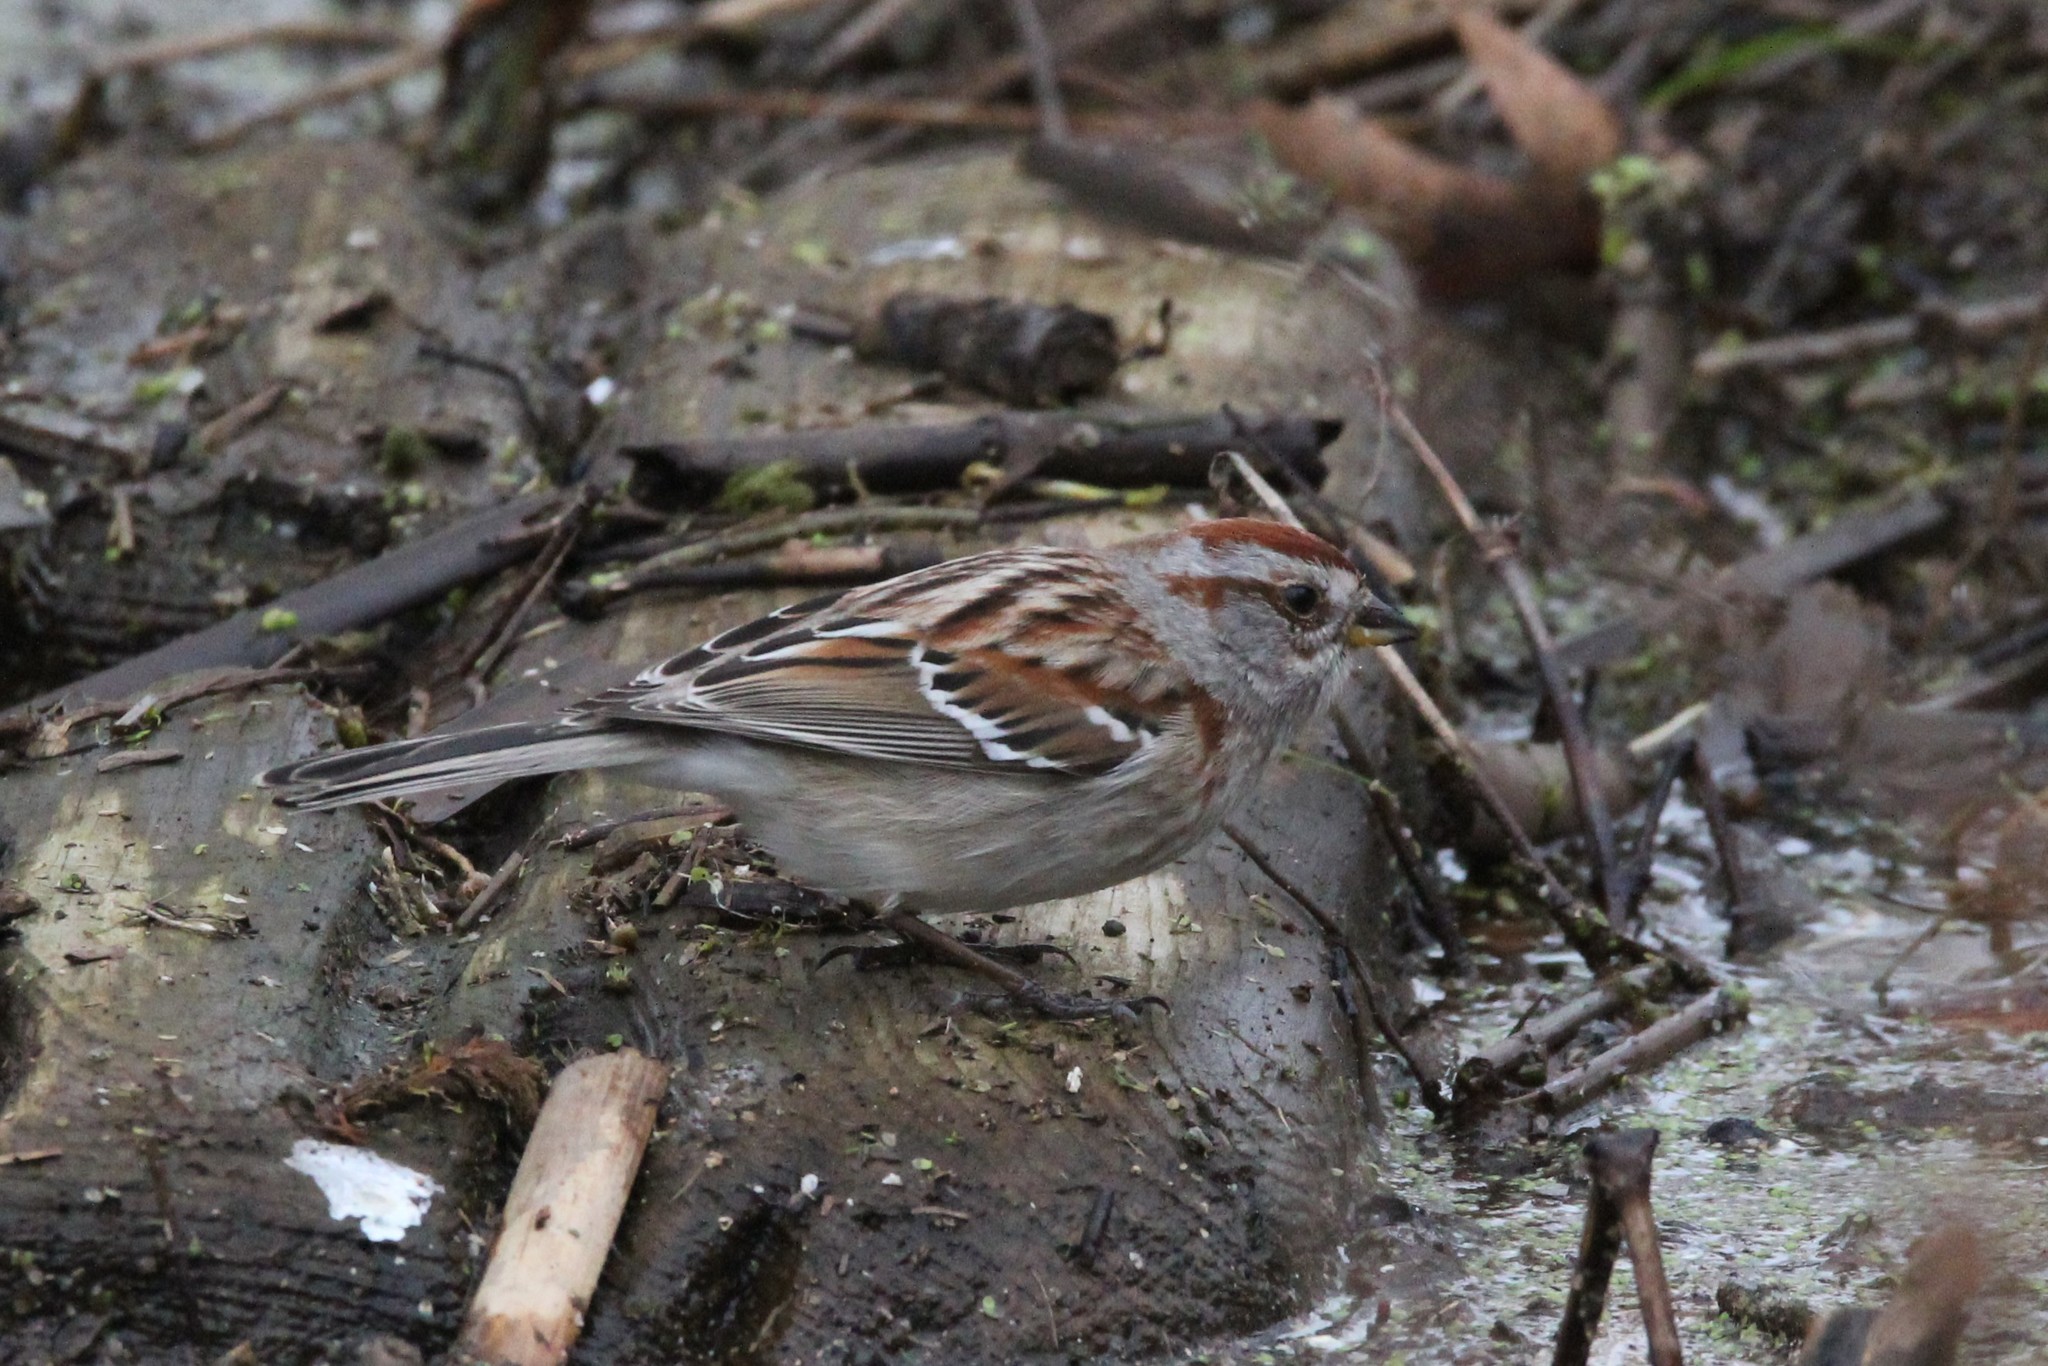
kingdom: Animalia
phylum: Chordata
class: Aves
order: Passeriformes
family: Passerellidae
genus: Spizelloides
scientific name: Spizelloides arborea
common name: American tree sparrow
